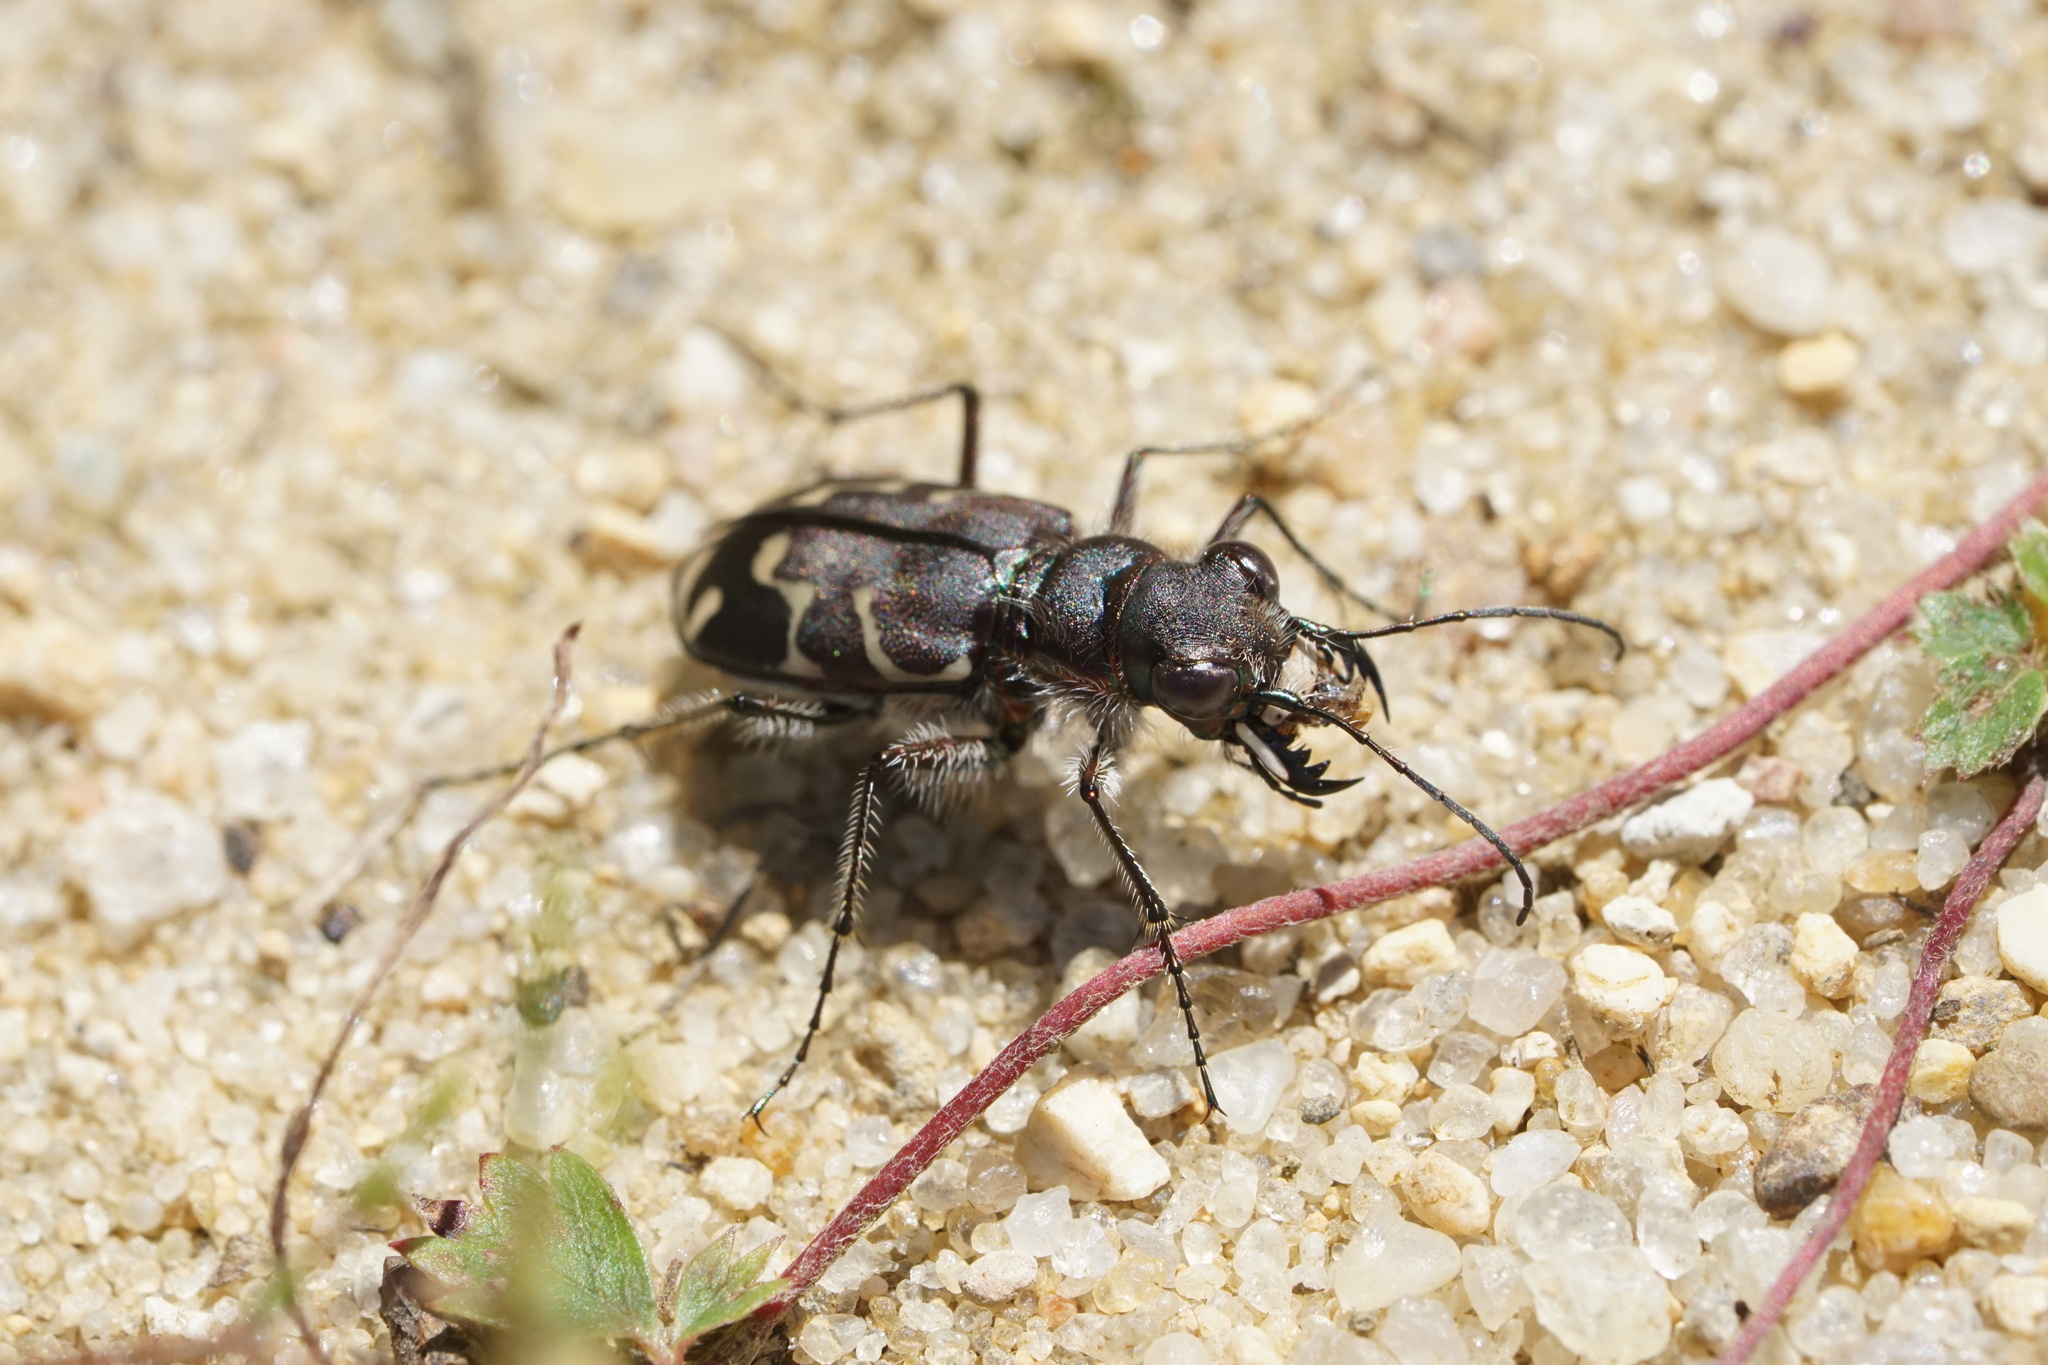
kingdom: Animalia
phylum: Arthropoda
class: Insecta
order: Coleoptera
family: Carabidae
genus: Cicindela
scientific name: Cicindela tranquebarica
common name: Oblique-lined tiger beetle
